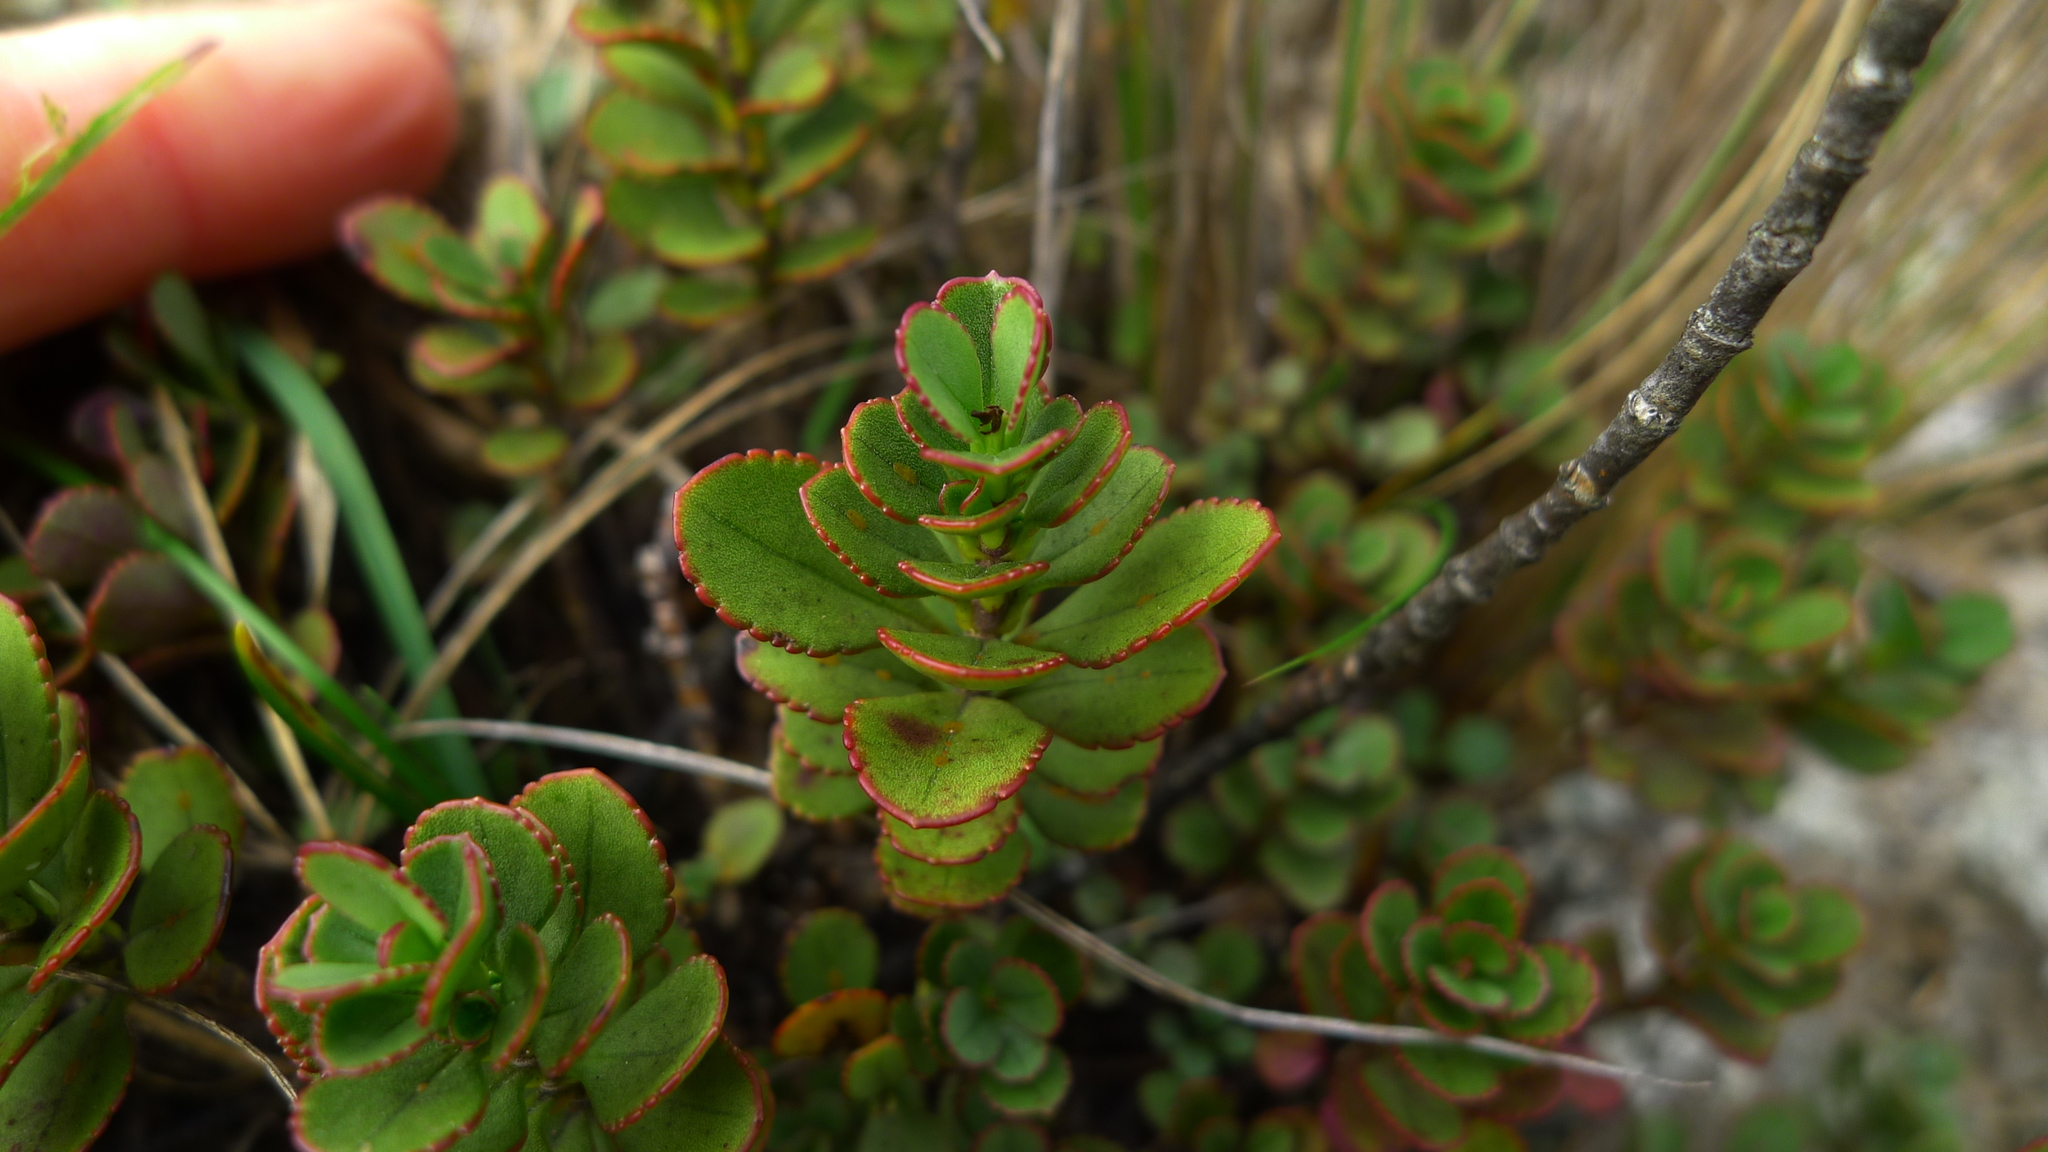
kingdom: Plantae
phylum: Tracheophyta
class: Magnoliopsida
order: Lamiales
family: Plantaginaceae
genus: Veronica
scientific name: Veronica lavaudiana
